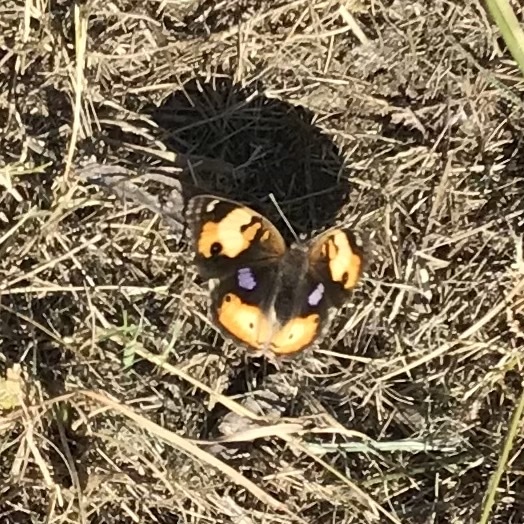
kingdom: Animalia
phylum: Arthropoda
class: Insecta
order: Lepidoptera
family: Nymphalidae
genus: Junonia
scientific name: Junonia hierta
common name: Yellow pansy
